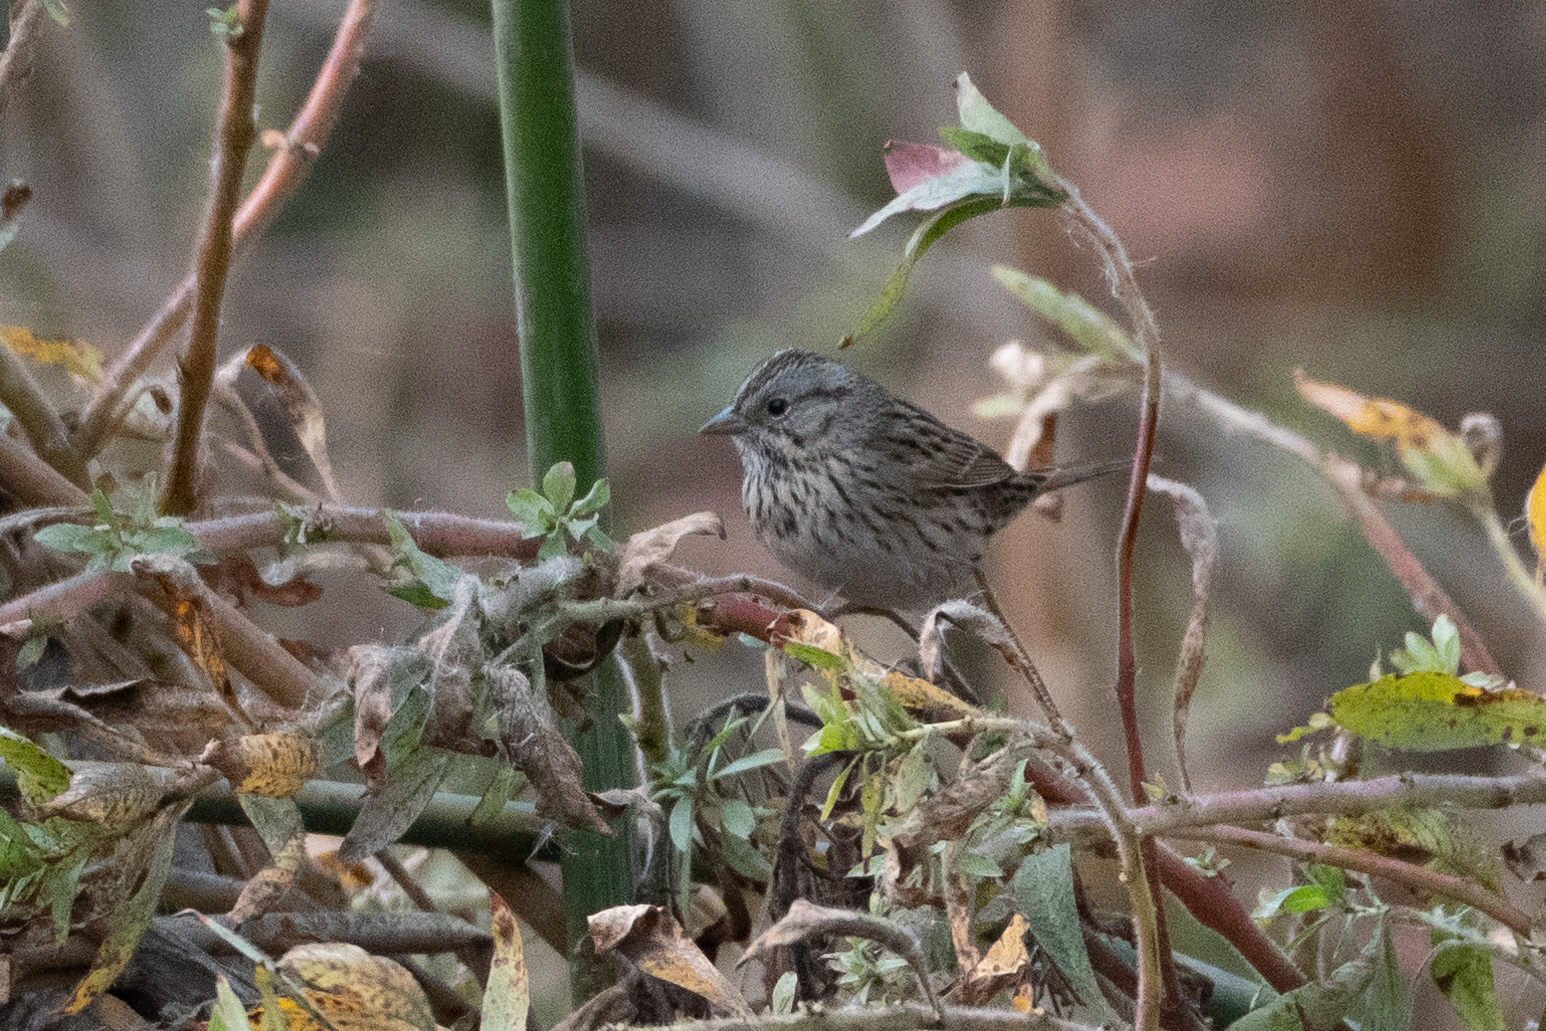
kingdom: Animalia
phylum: Chordata
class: Aves
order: Passeriformes
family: Passerellidae
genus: Melospiza
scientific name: Melospiza lincolnii
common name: Lincoln's sparrow
